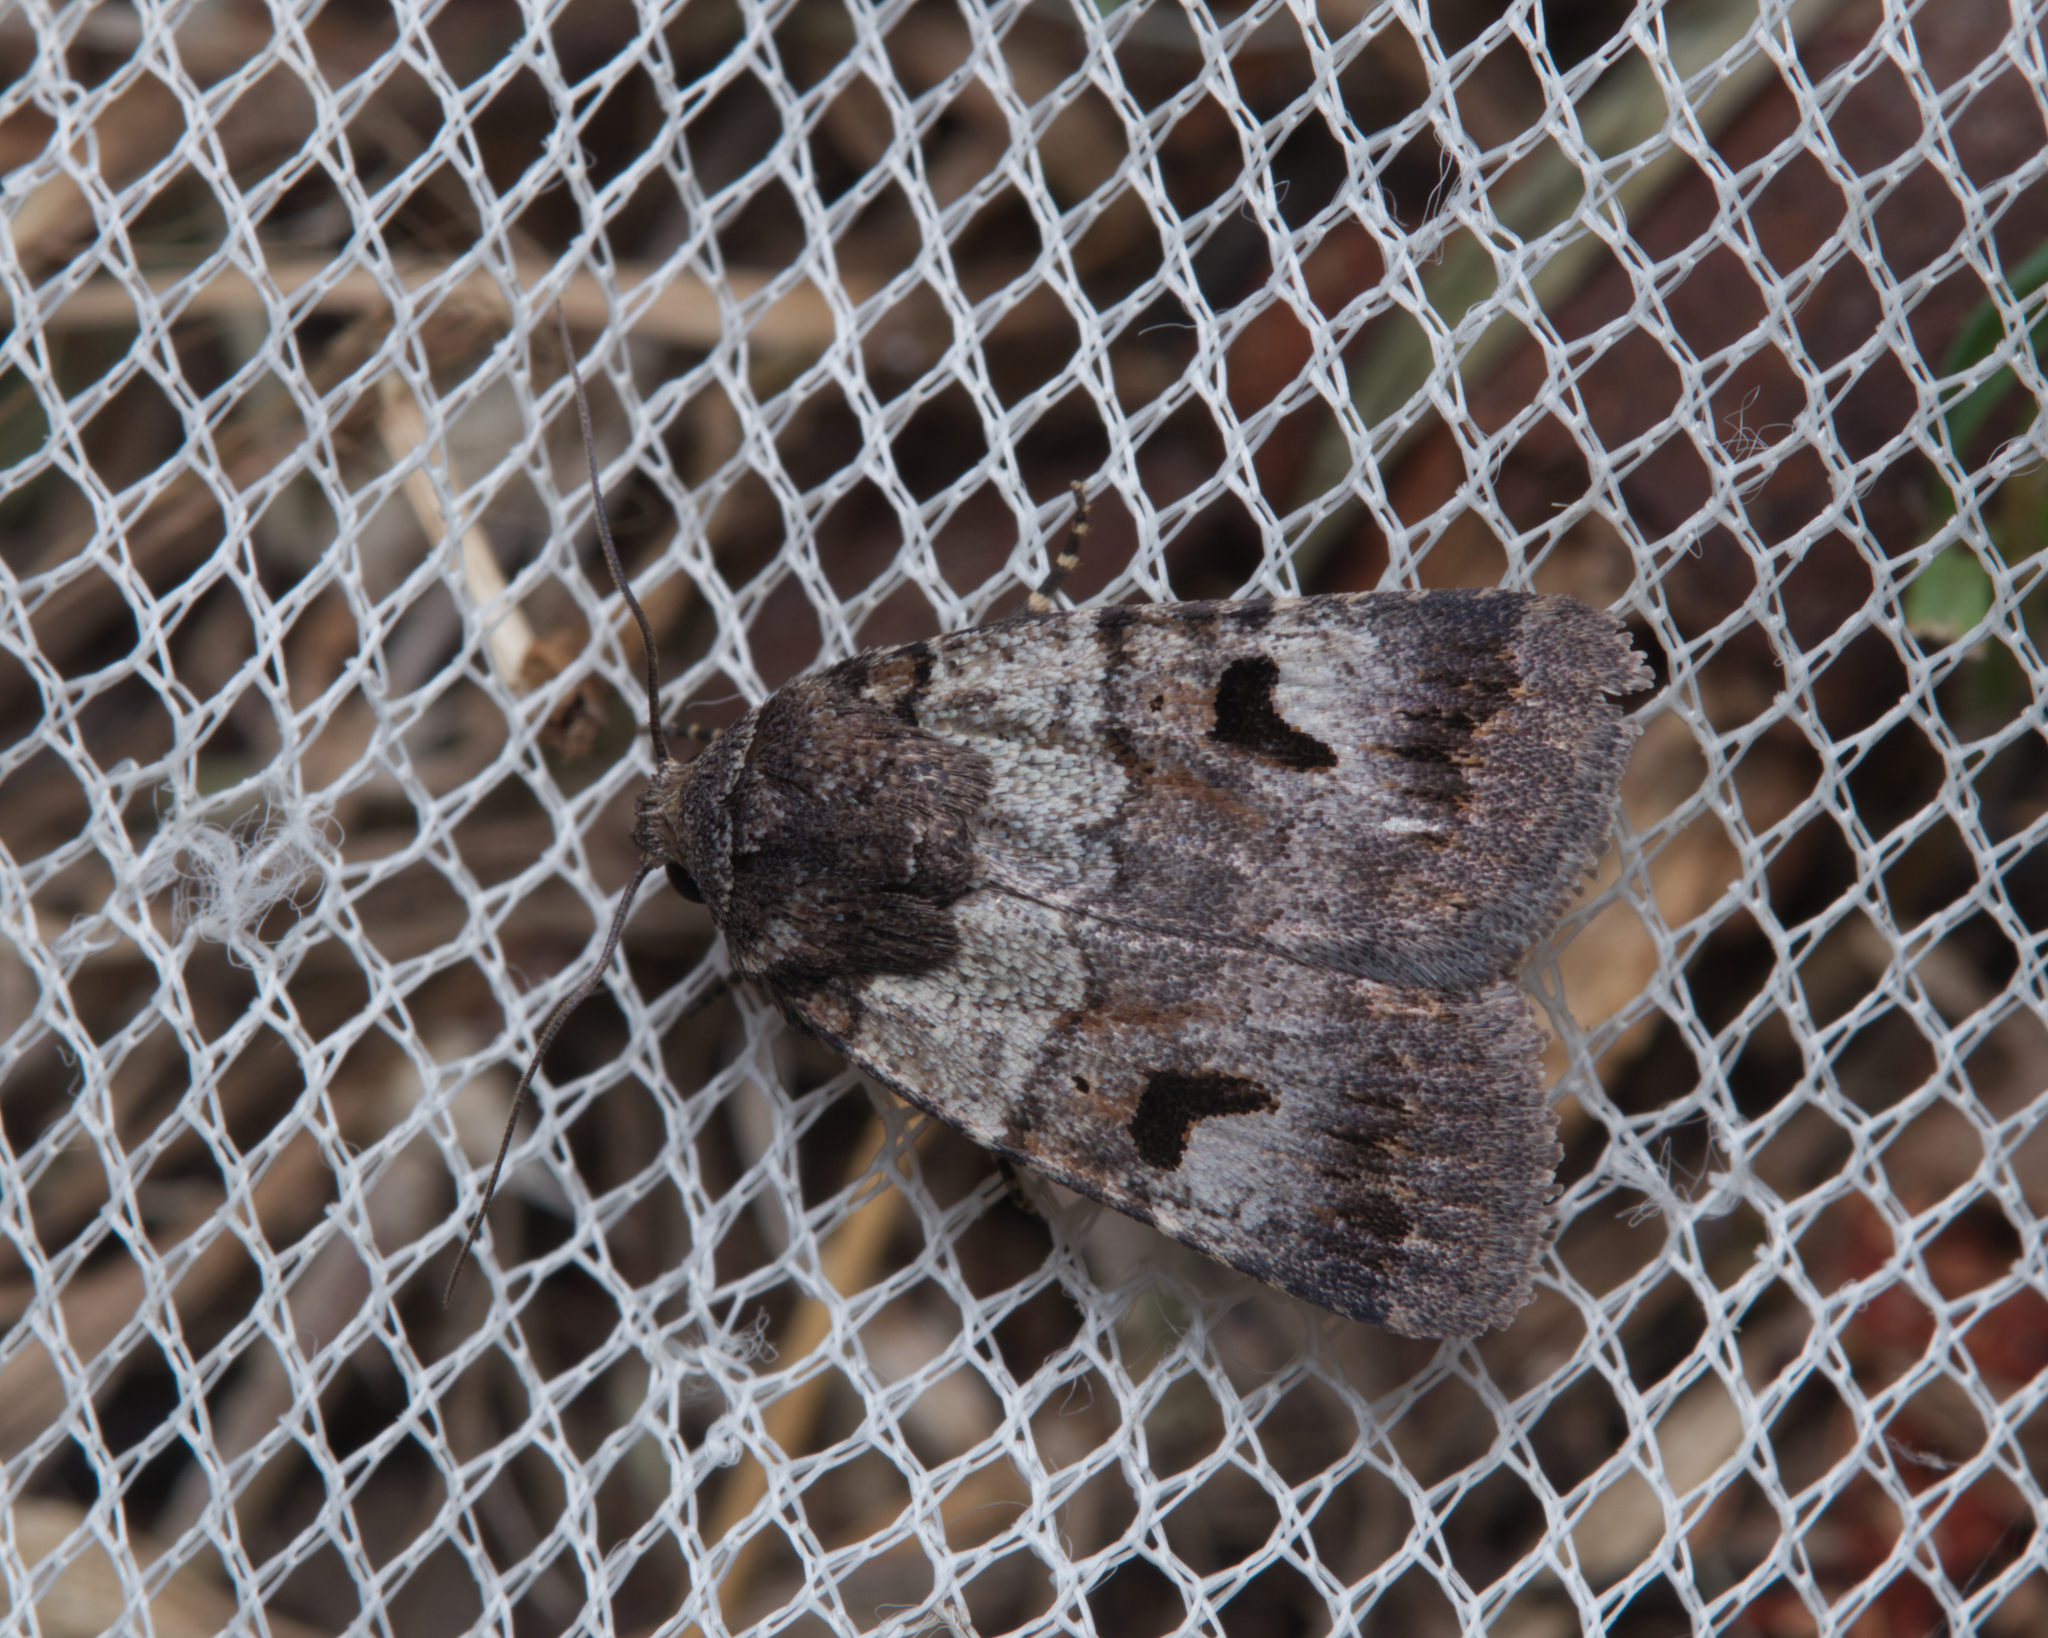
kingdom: Animalia
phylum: Arthropoda
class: Insecta
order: Lepidoptera
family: Noctuidae
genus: Thoracolopha
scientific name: Thoracolopha flexirena
